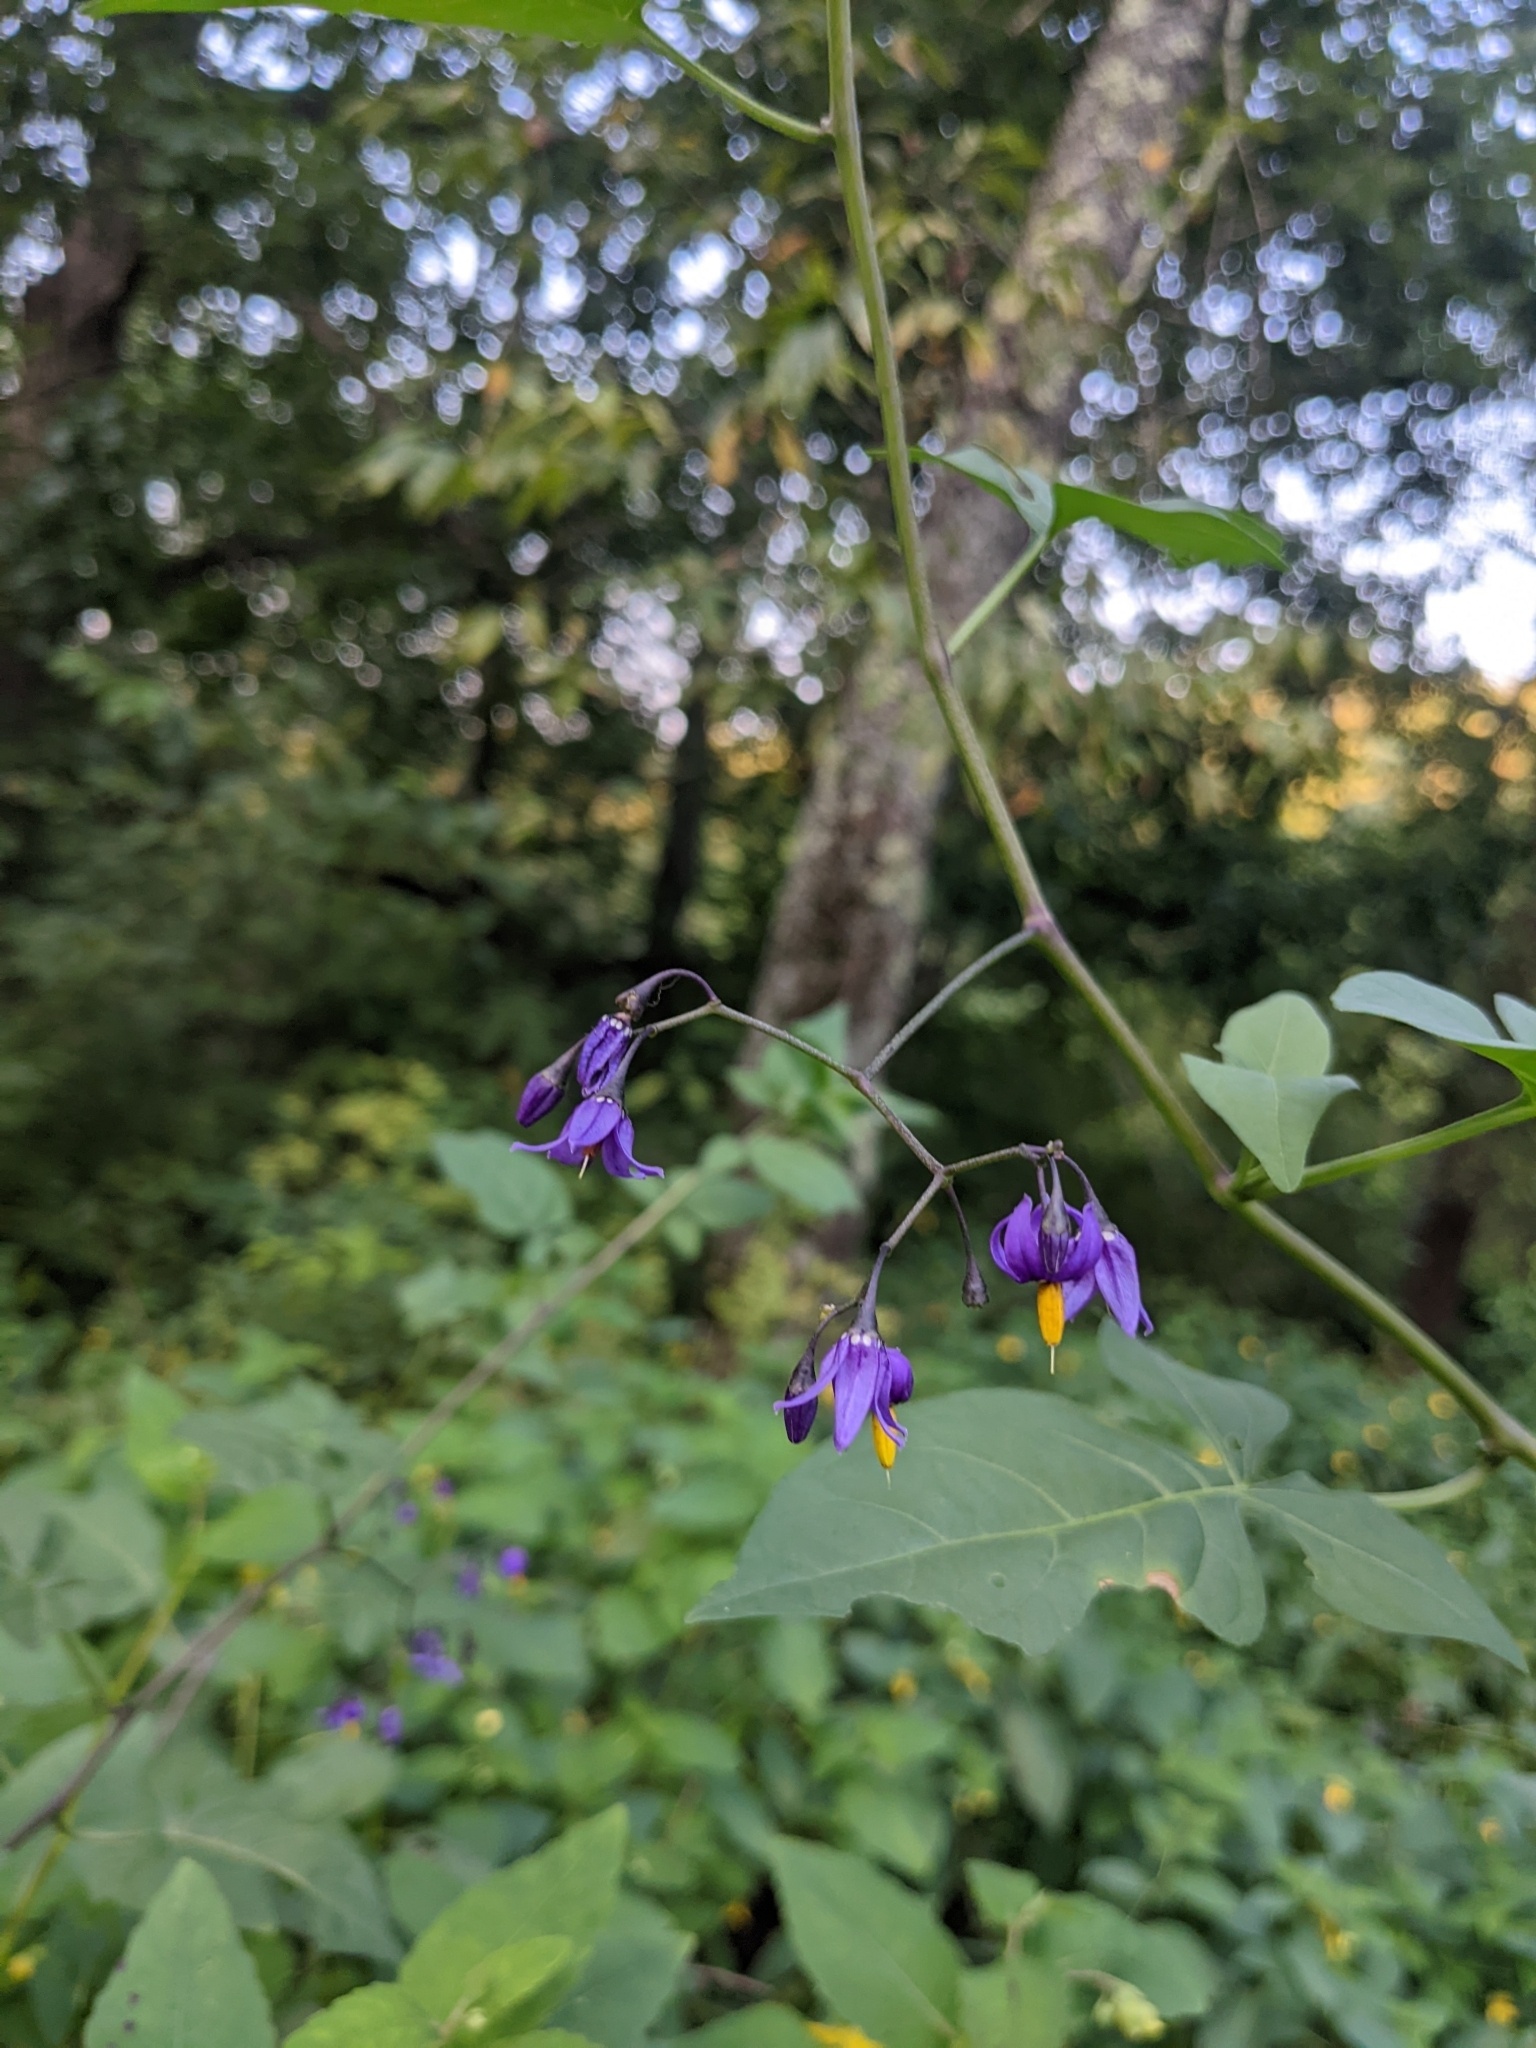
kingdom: Plantae
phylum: Tracheophyta
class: Magnoliopsida
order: Solanales
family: Solanaceae
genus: Solanum
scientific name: Solanum dulcamara
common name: Climbing nightshade
